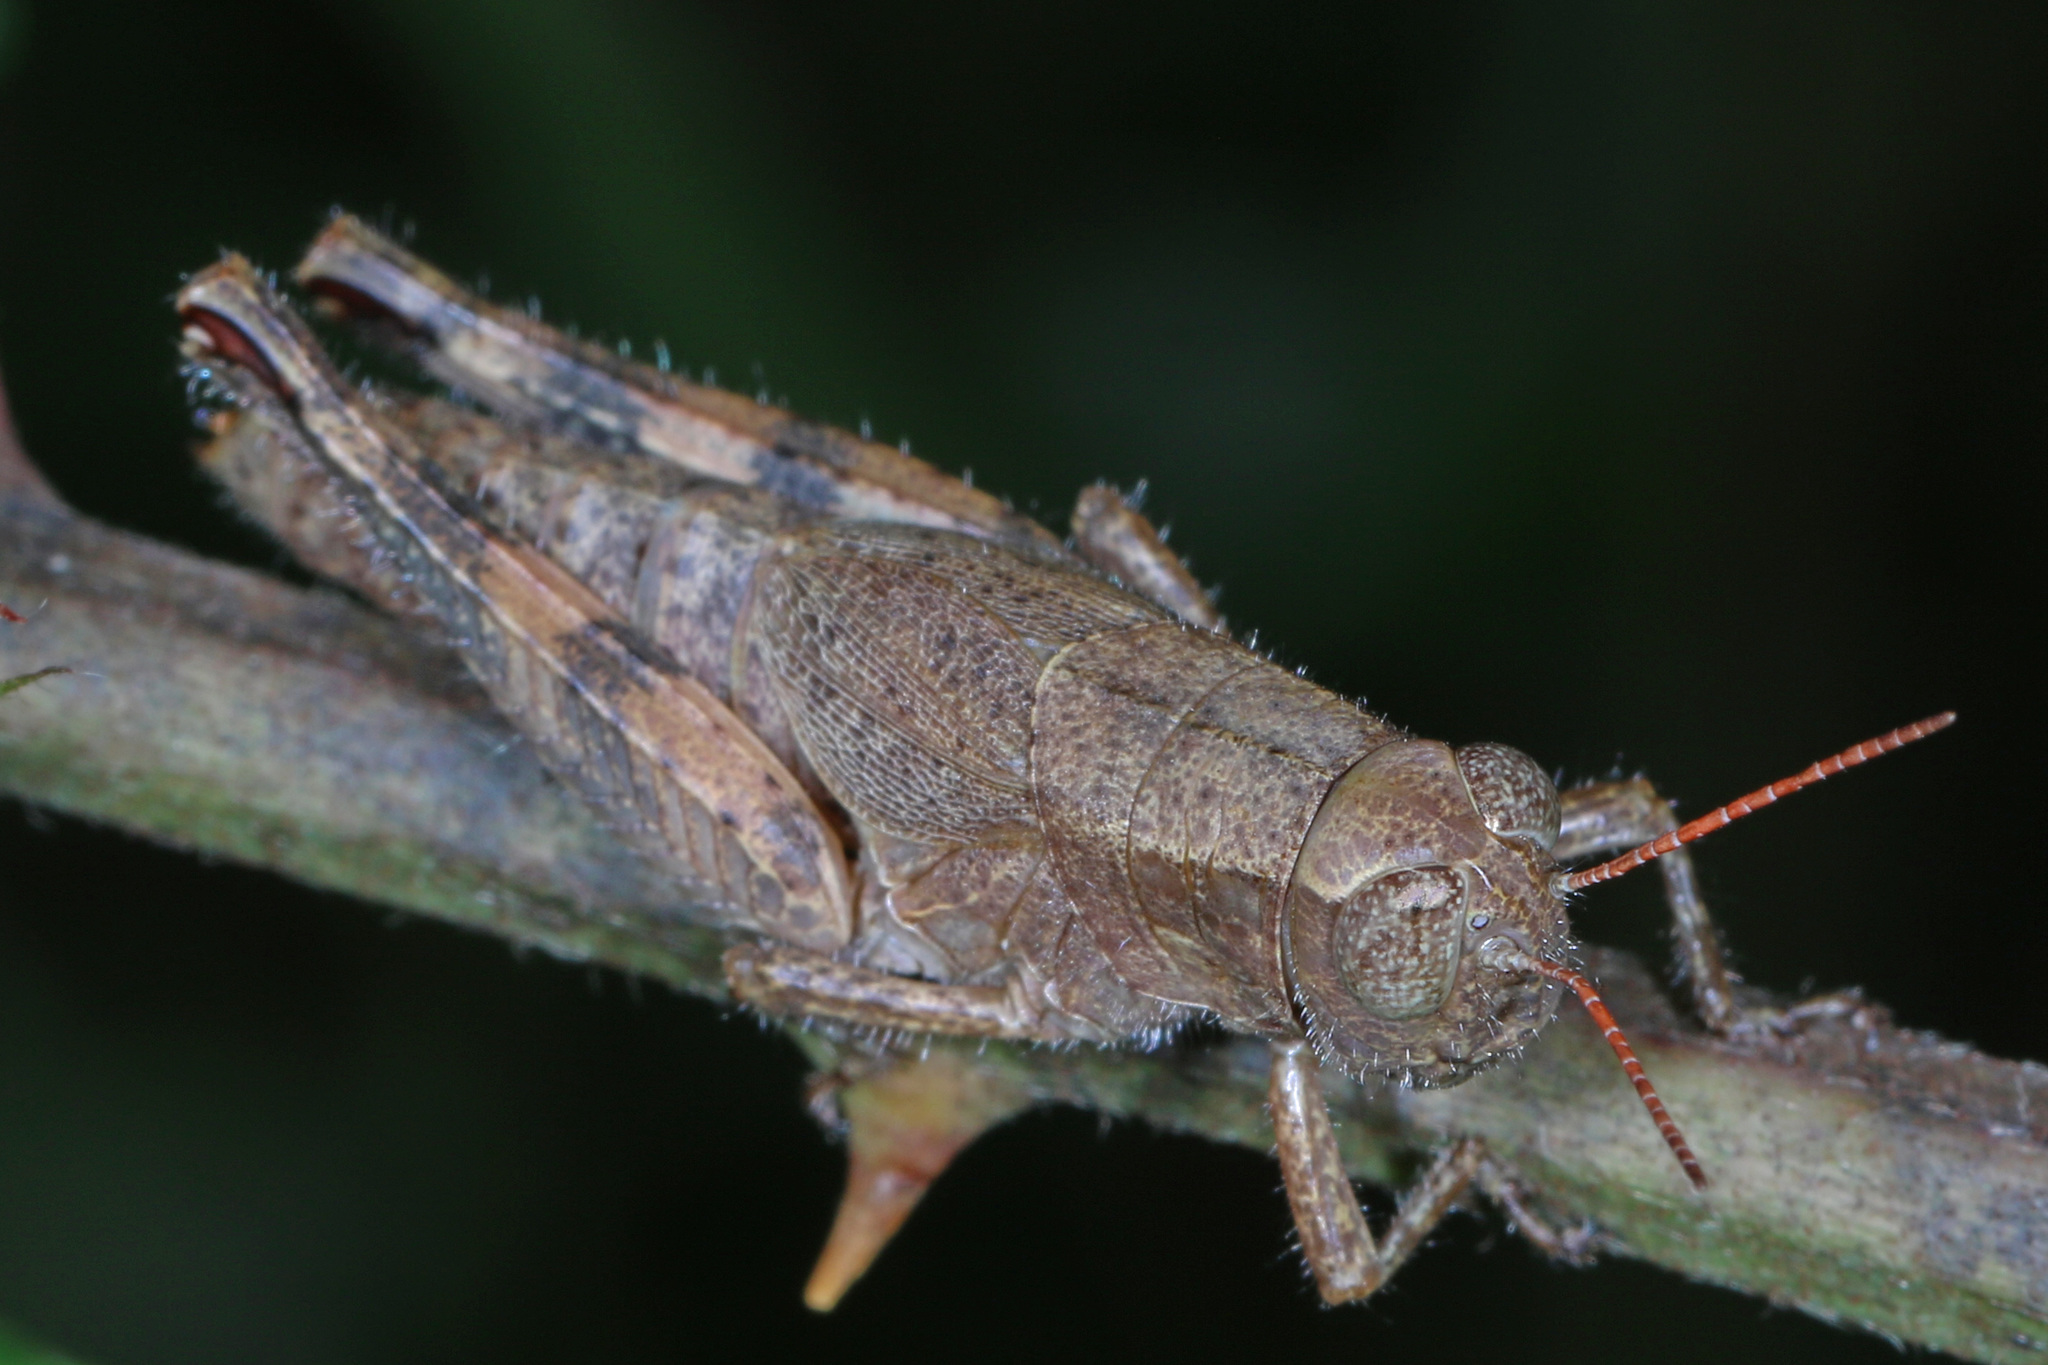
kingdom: Animalia
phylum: Arthropoda
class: Insecta
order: Orthoptera
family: Acrididae
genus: Melanoplus
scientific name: Melanoplus scudderi
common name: Scudder's short-winged locust
